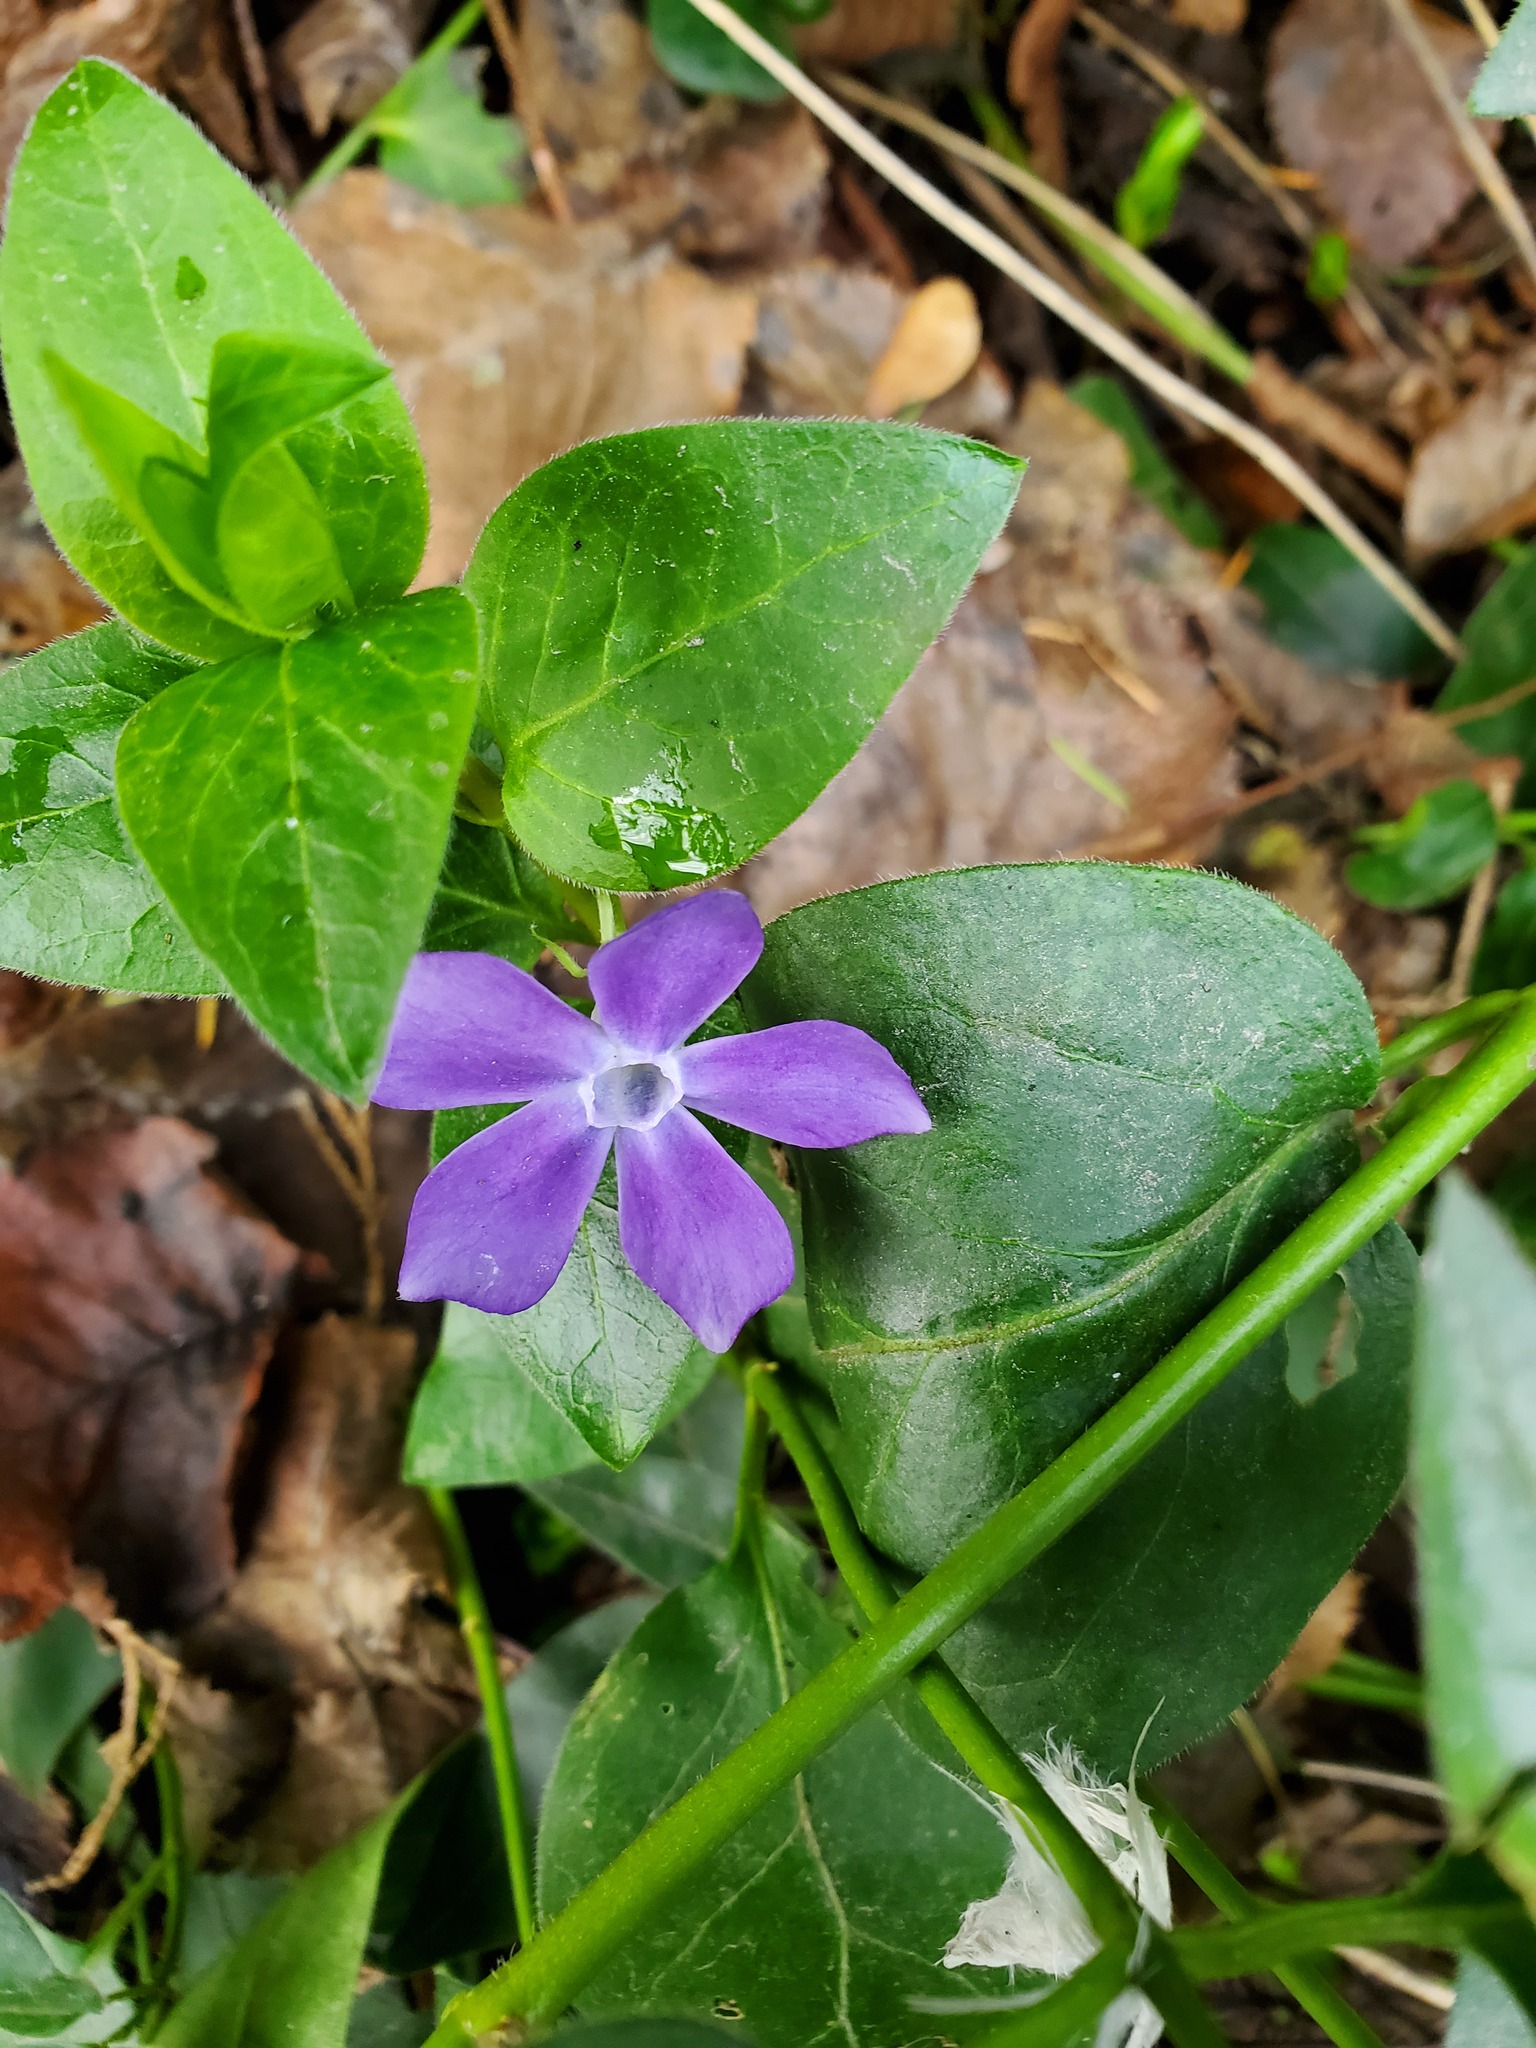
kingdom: Plantae
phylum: Tracheophyta
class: Magnoliopsida
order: Gentianales
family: Apocynaceae
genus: Vinca
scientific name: Vinca major
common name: Greater periwinkle
